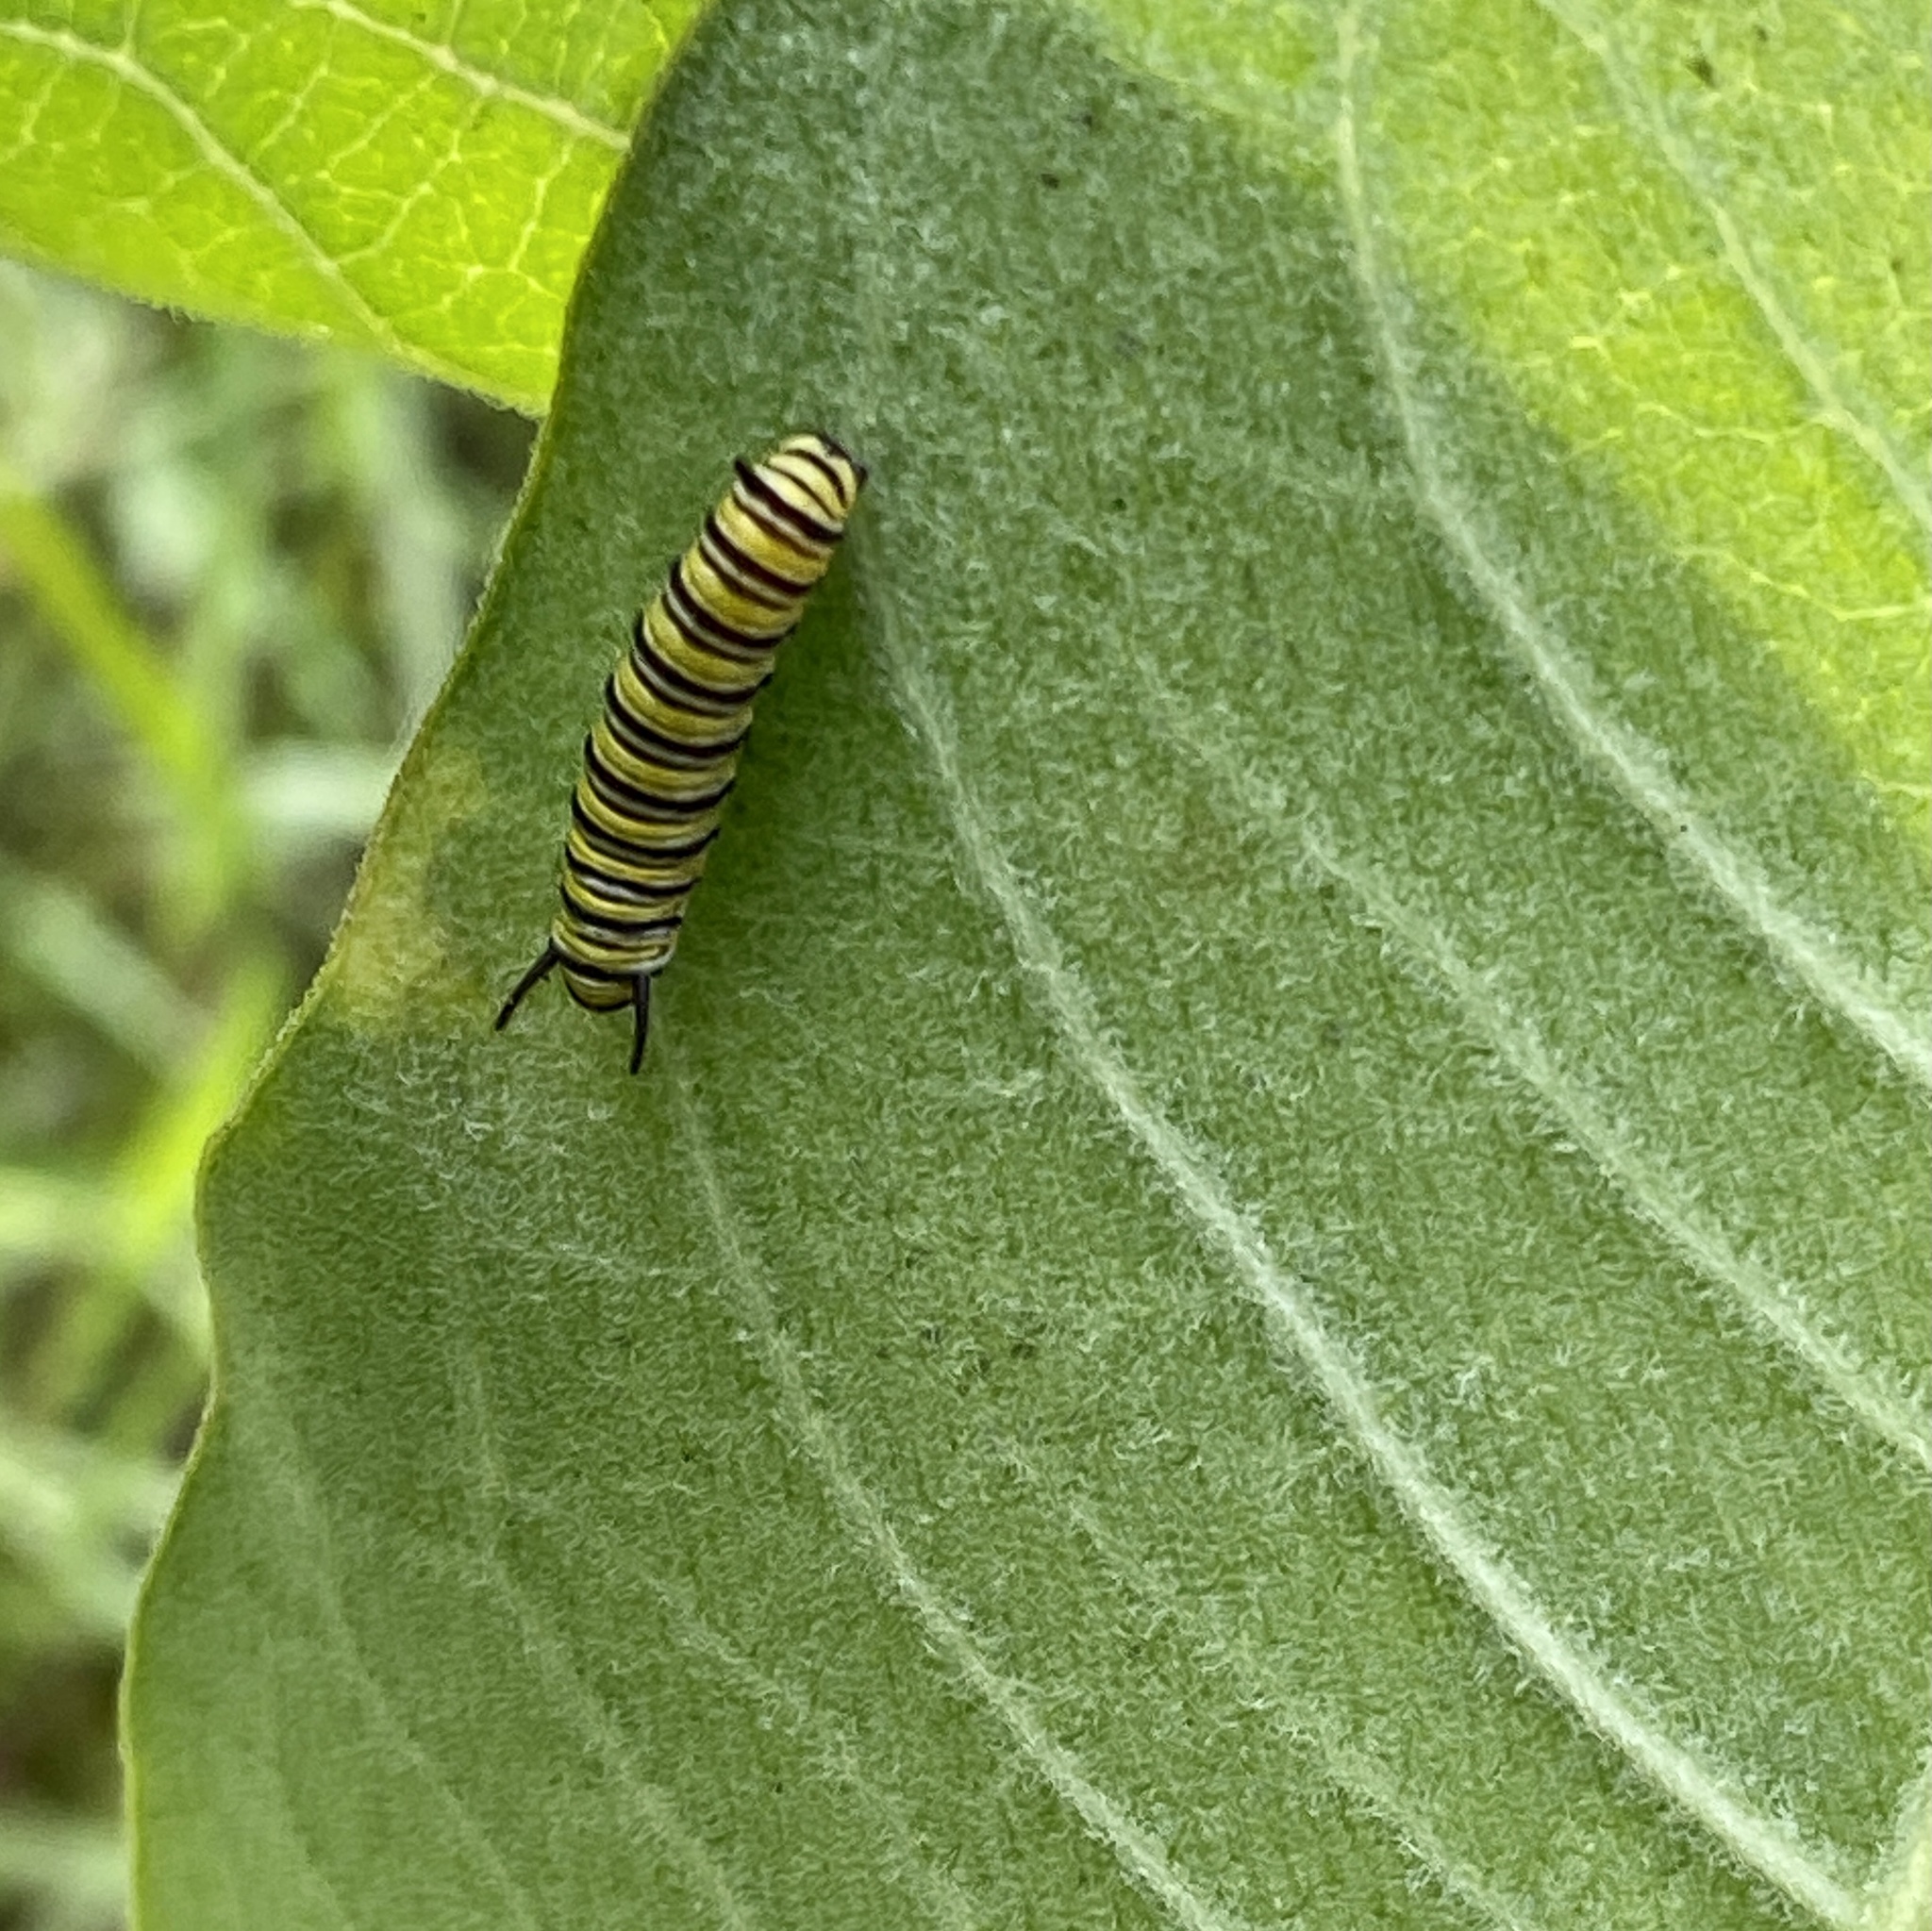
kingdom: Animalia
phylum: Arthropoda
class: Insecta
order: Lepidoptera
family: Nymphalidae
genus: Danaus
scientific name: Danaus plexippus
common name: Monarch
